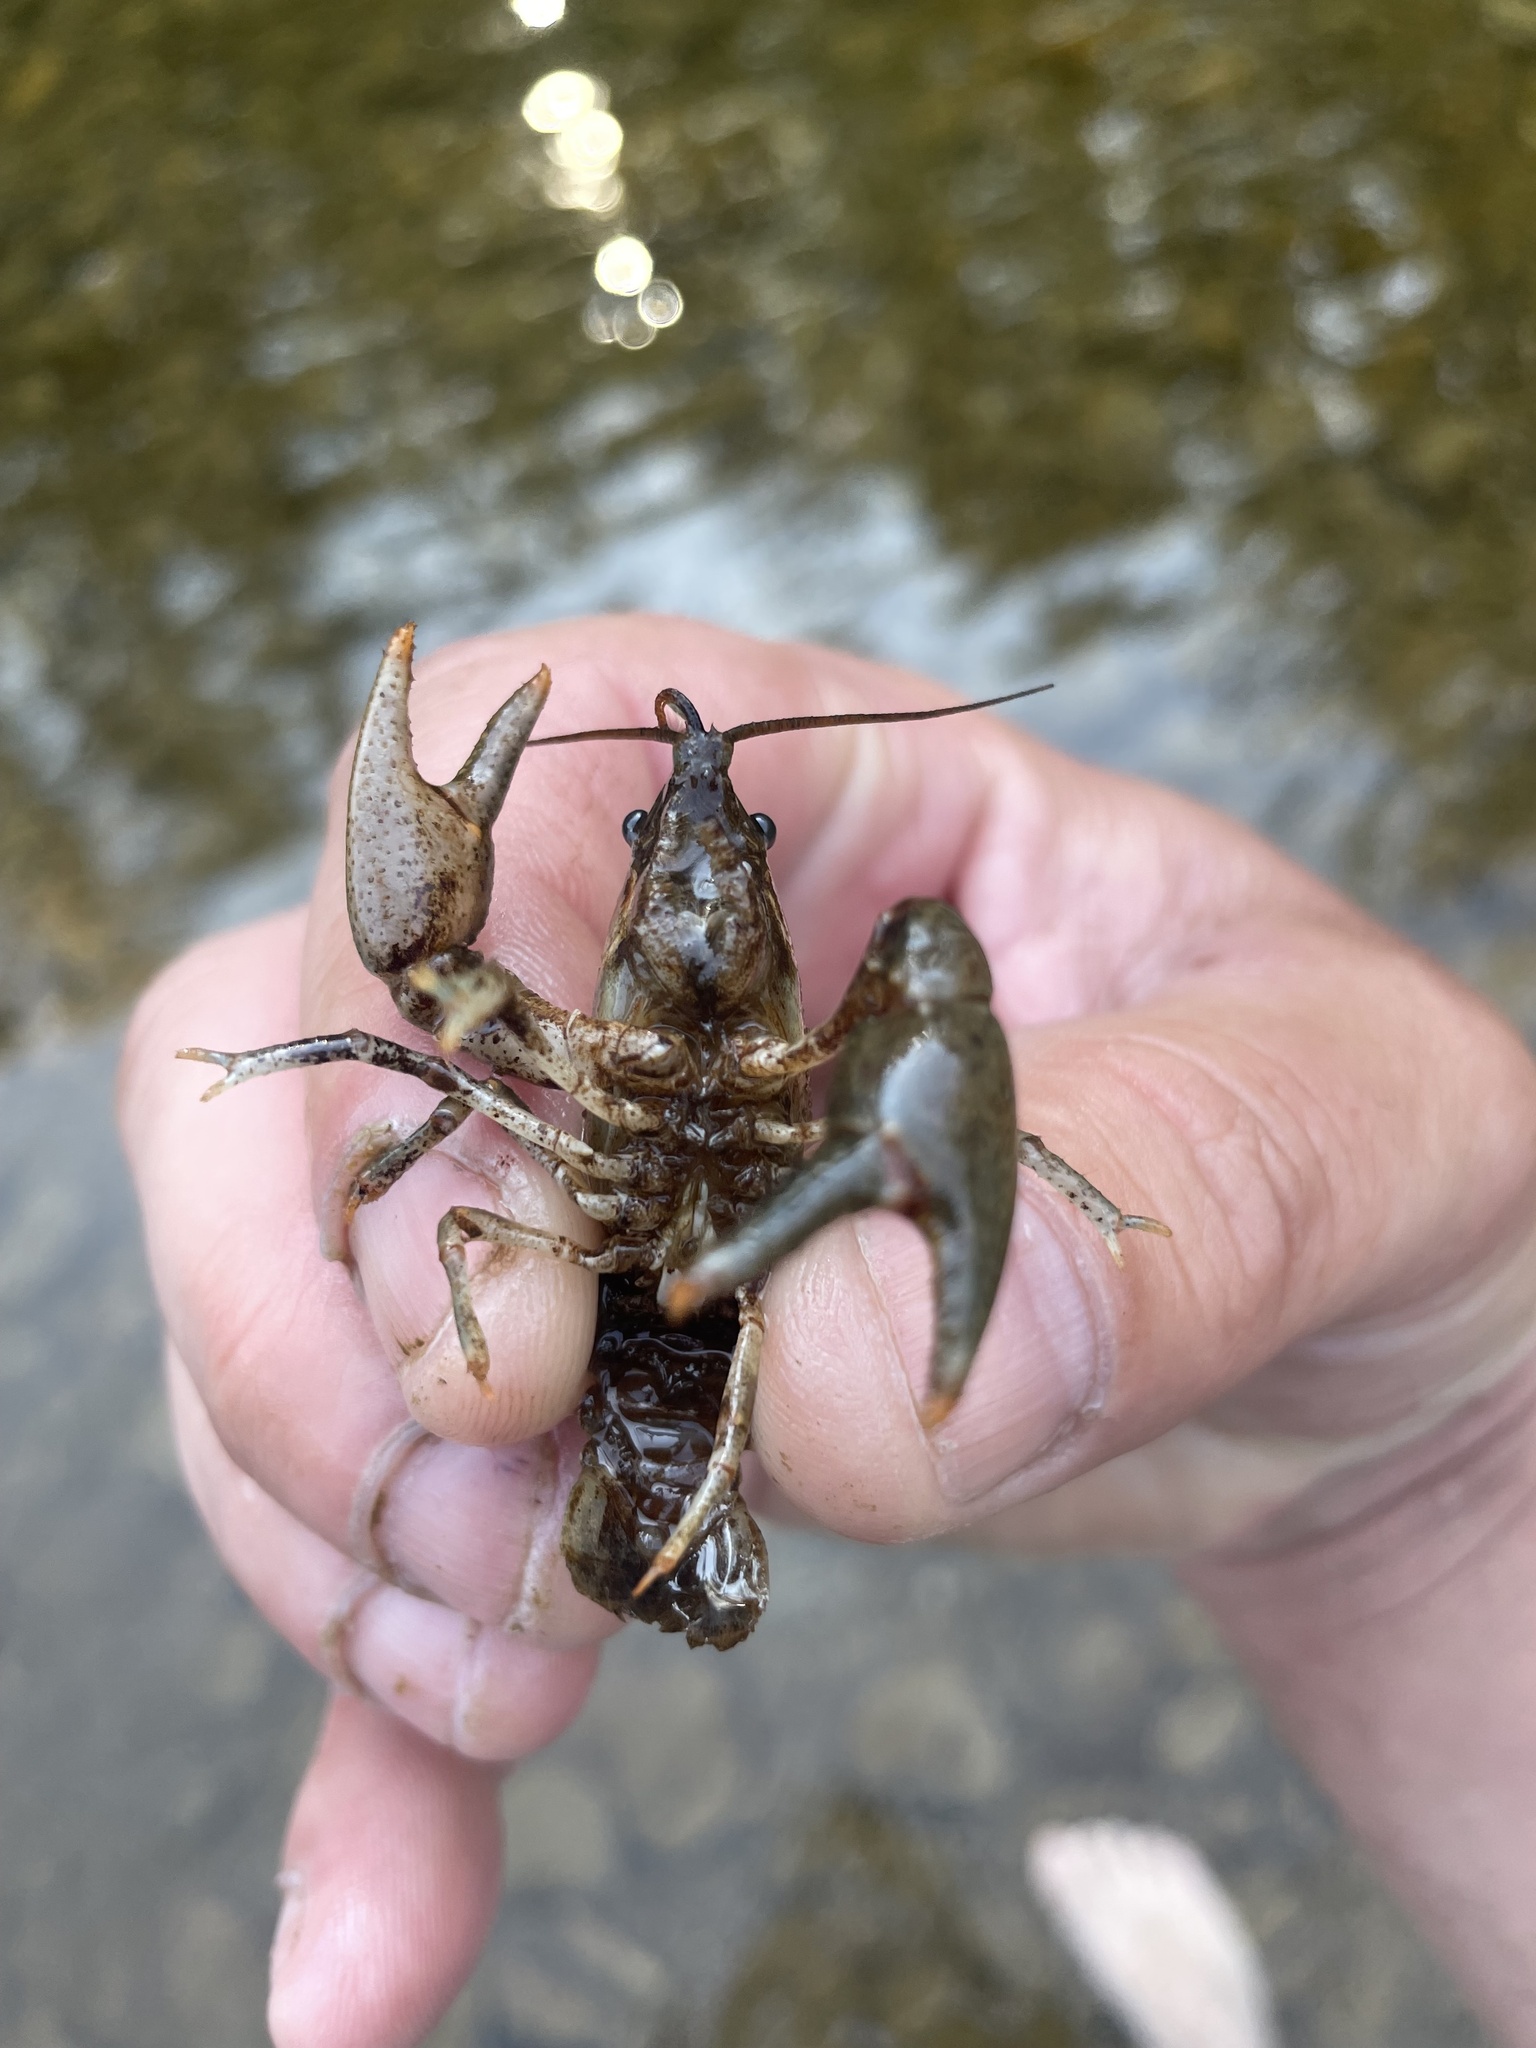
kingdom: Animalia
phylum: Arthropoda
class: Malacostraca
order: Decapoda
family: Cambaridae
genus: Faxonius
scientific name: Faxonius propinquus
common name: Northern clearwater crayfish
